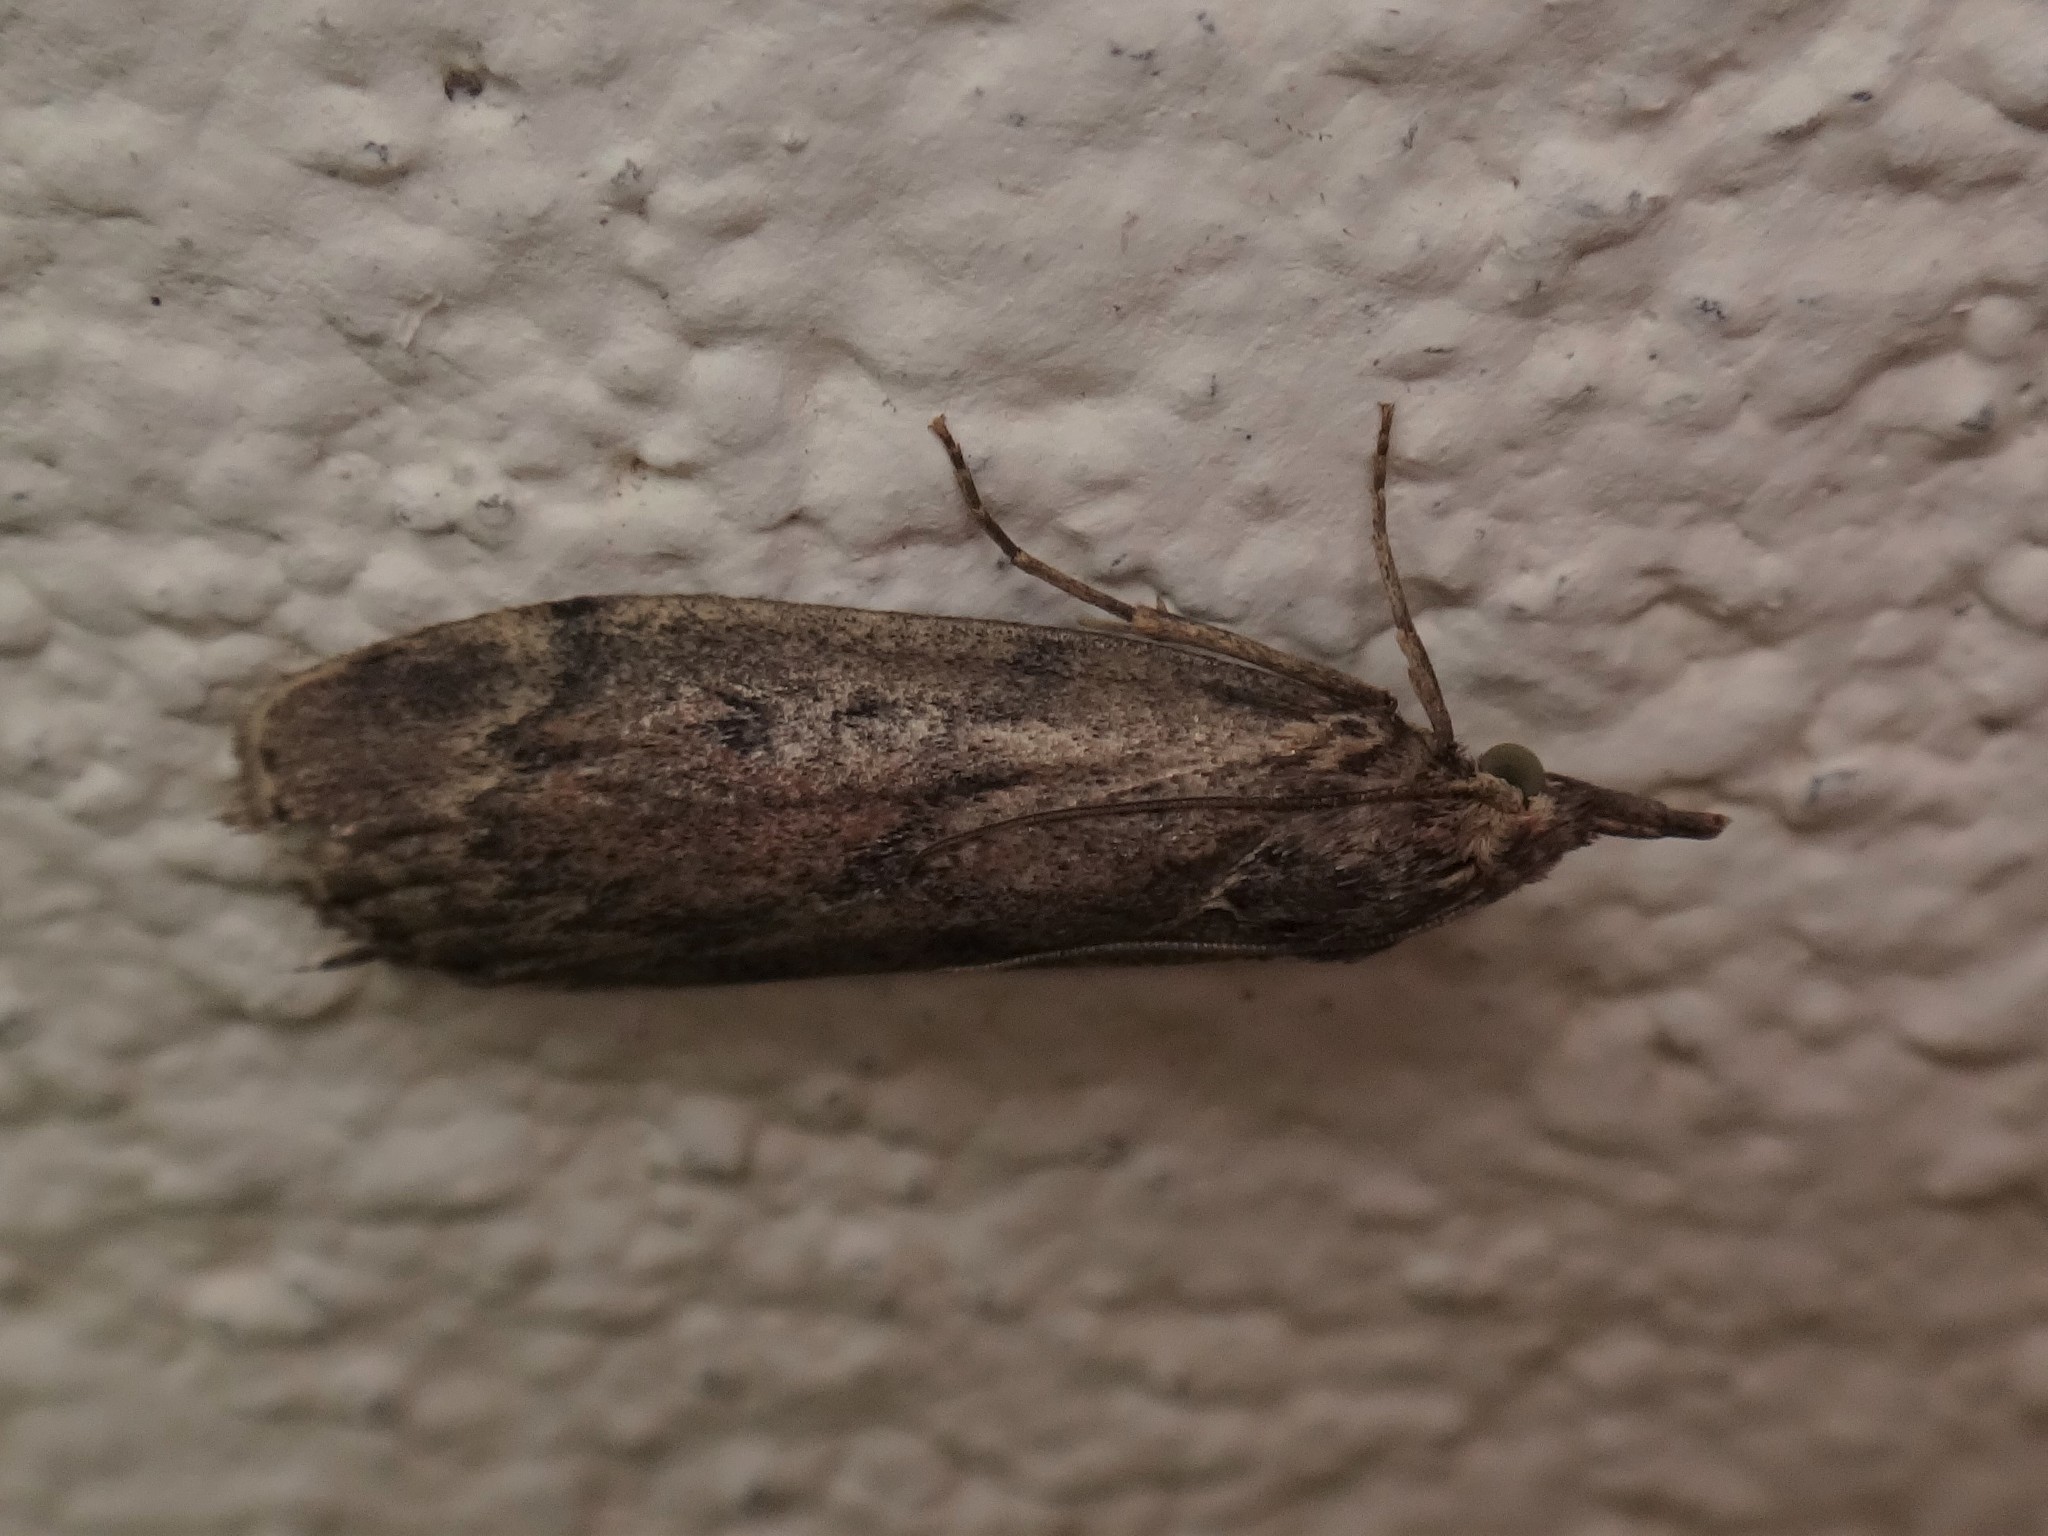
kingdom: Animalia
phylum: Arthropoda
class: Insecta
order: Lepidoptera
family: Pyralidae
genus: Aphomia
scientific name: Aphomia sociella
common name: Bee moth
